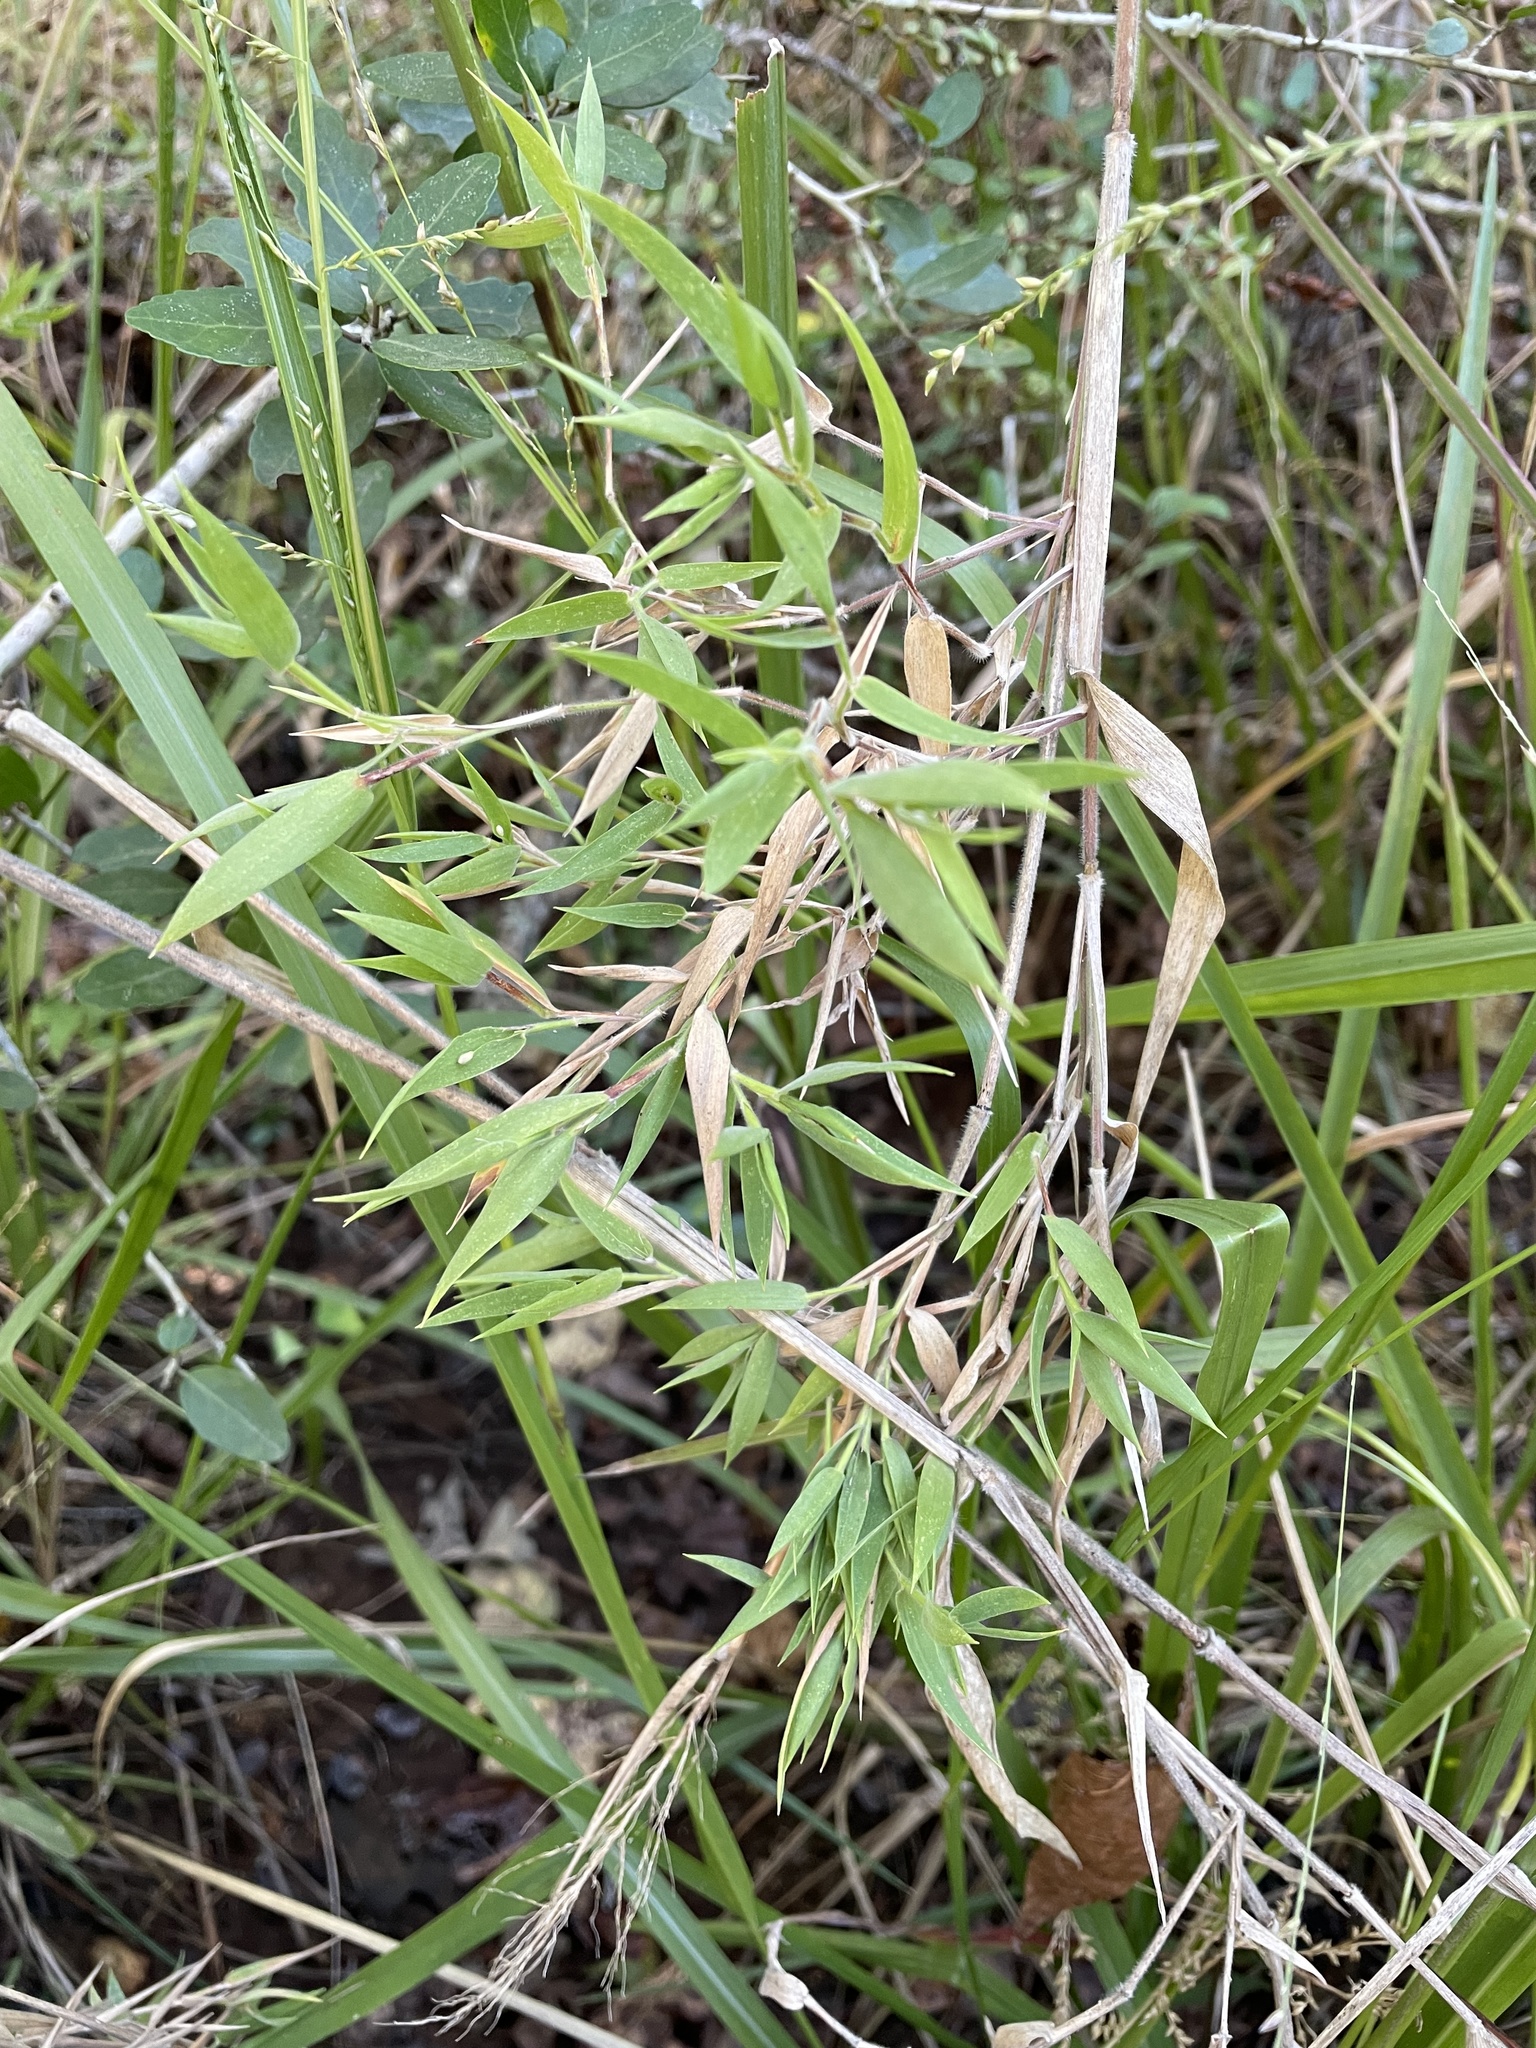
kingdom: Plantae
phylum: Tracheophyta
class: Liliopsida
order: Poales
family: Poaceae
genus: Dichanthelium
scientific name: Dichanthelium oligosanthes
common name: Few-anther obscuregrass
